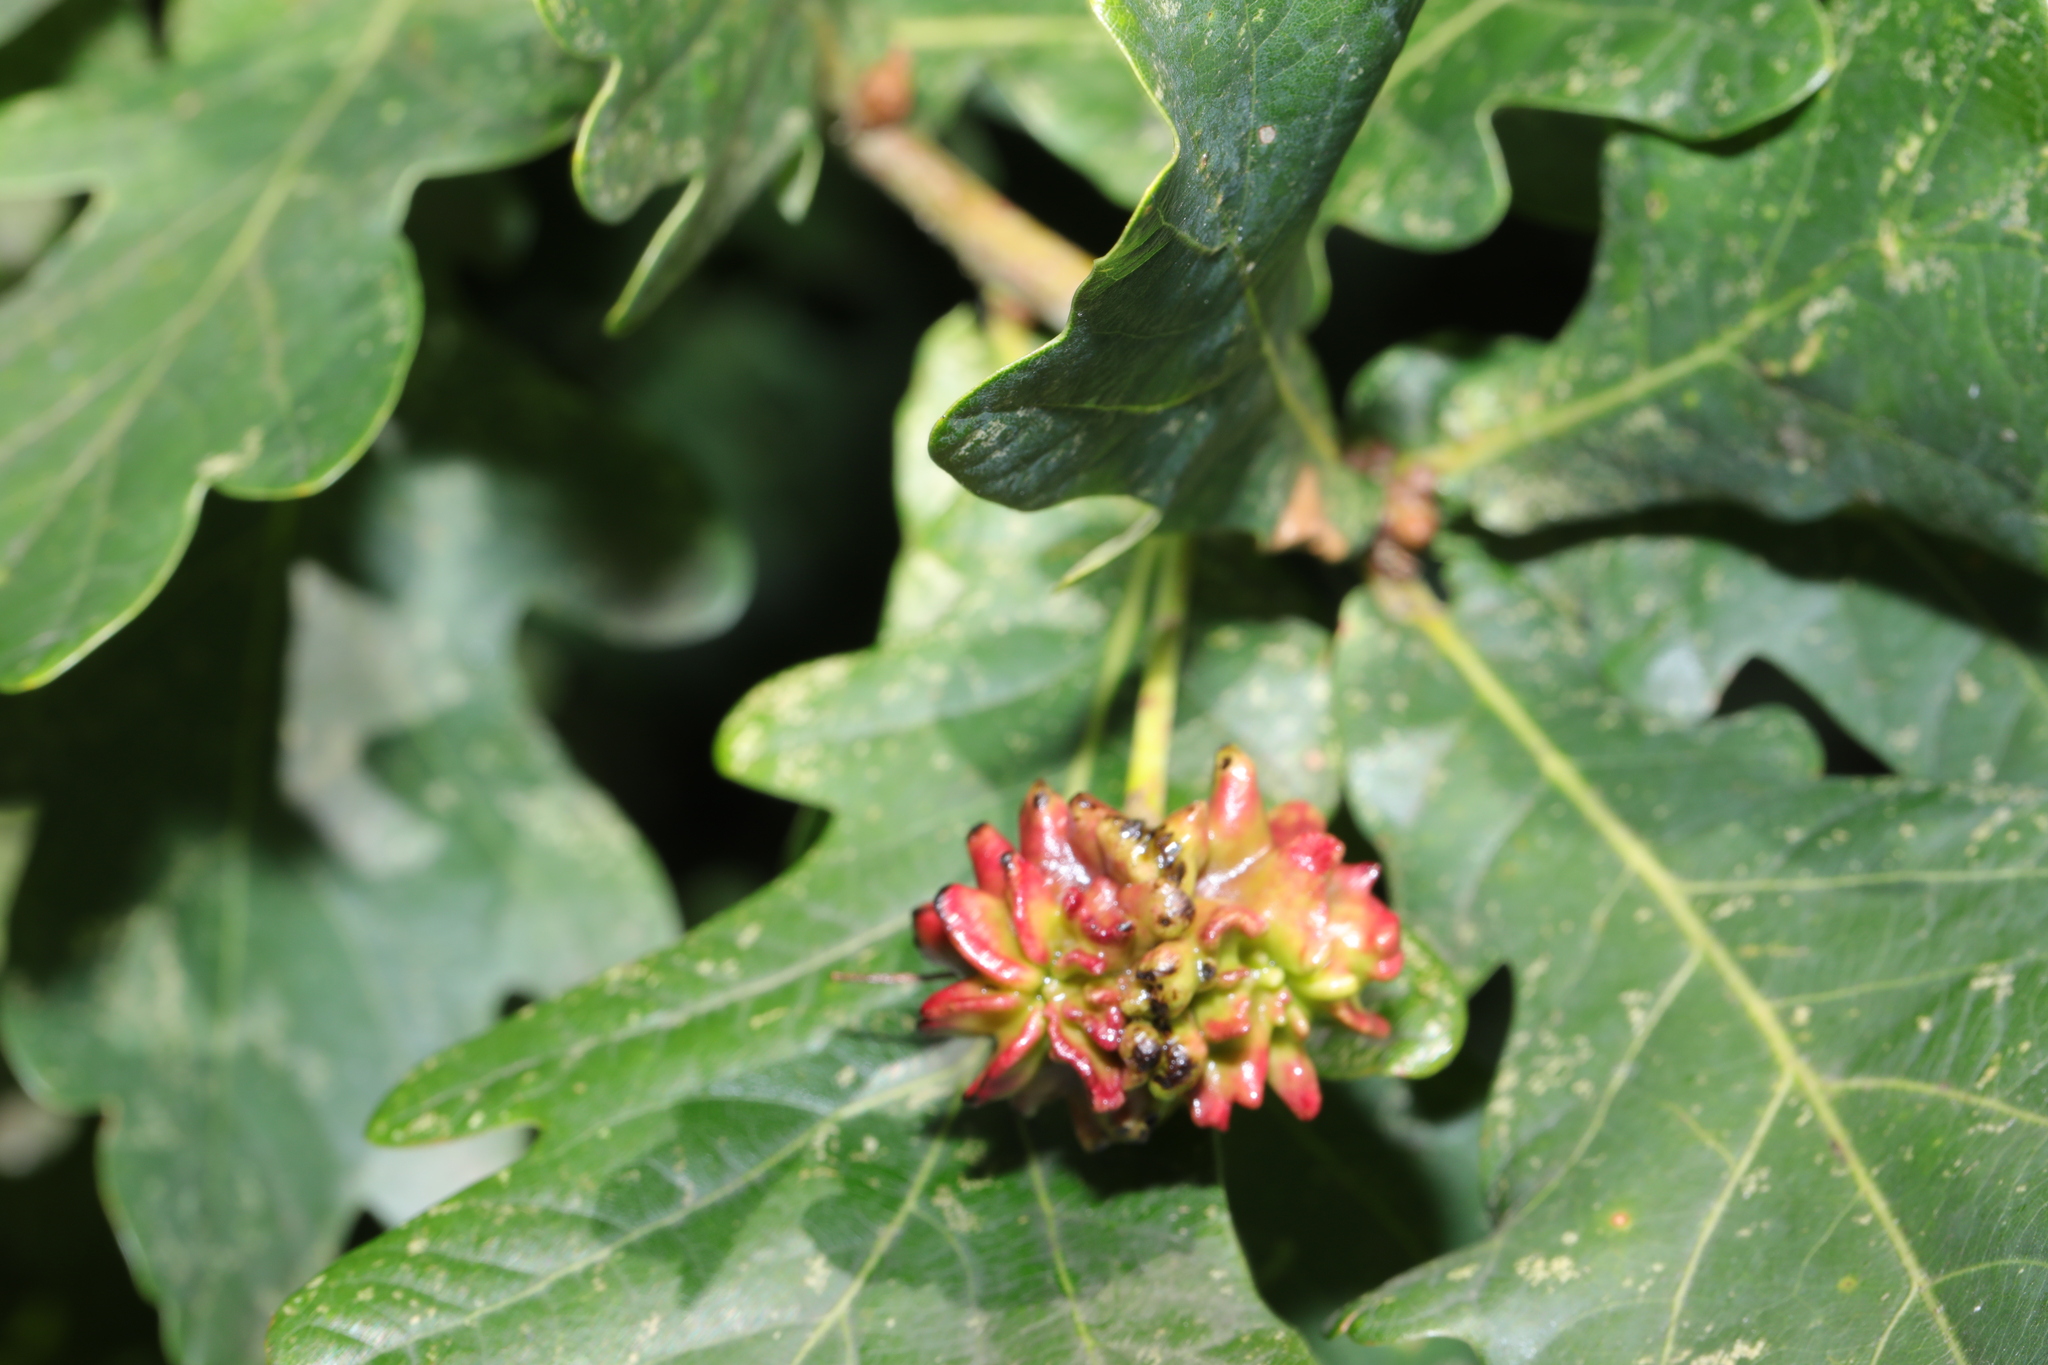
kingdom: Animalia
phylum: Arthropoda
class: Insecta
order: Hymenoptera
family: Cynipidae
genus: Andricus
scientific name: Andricus quercuscalicis
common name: Knopper gall
